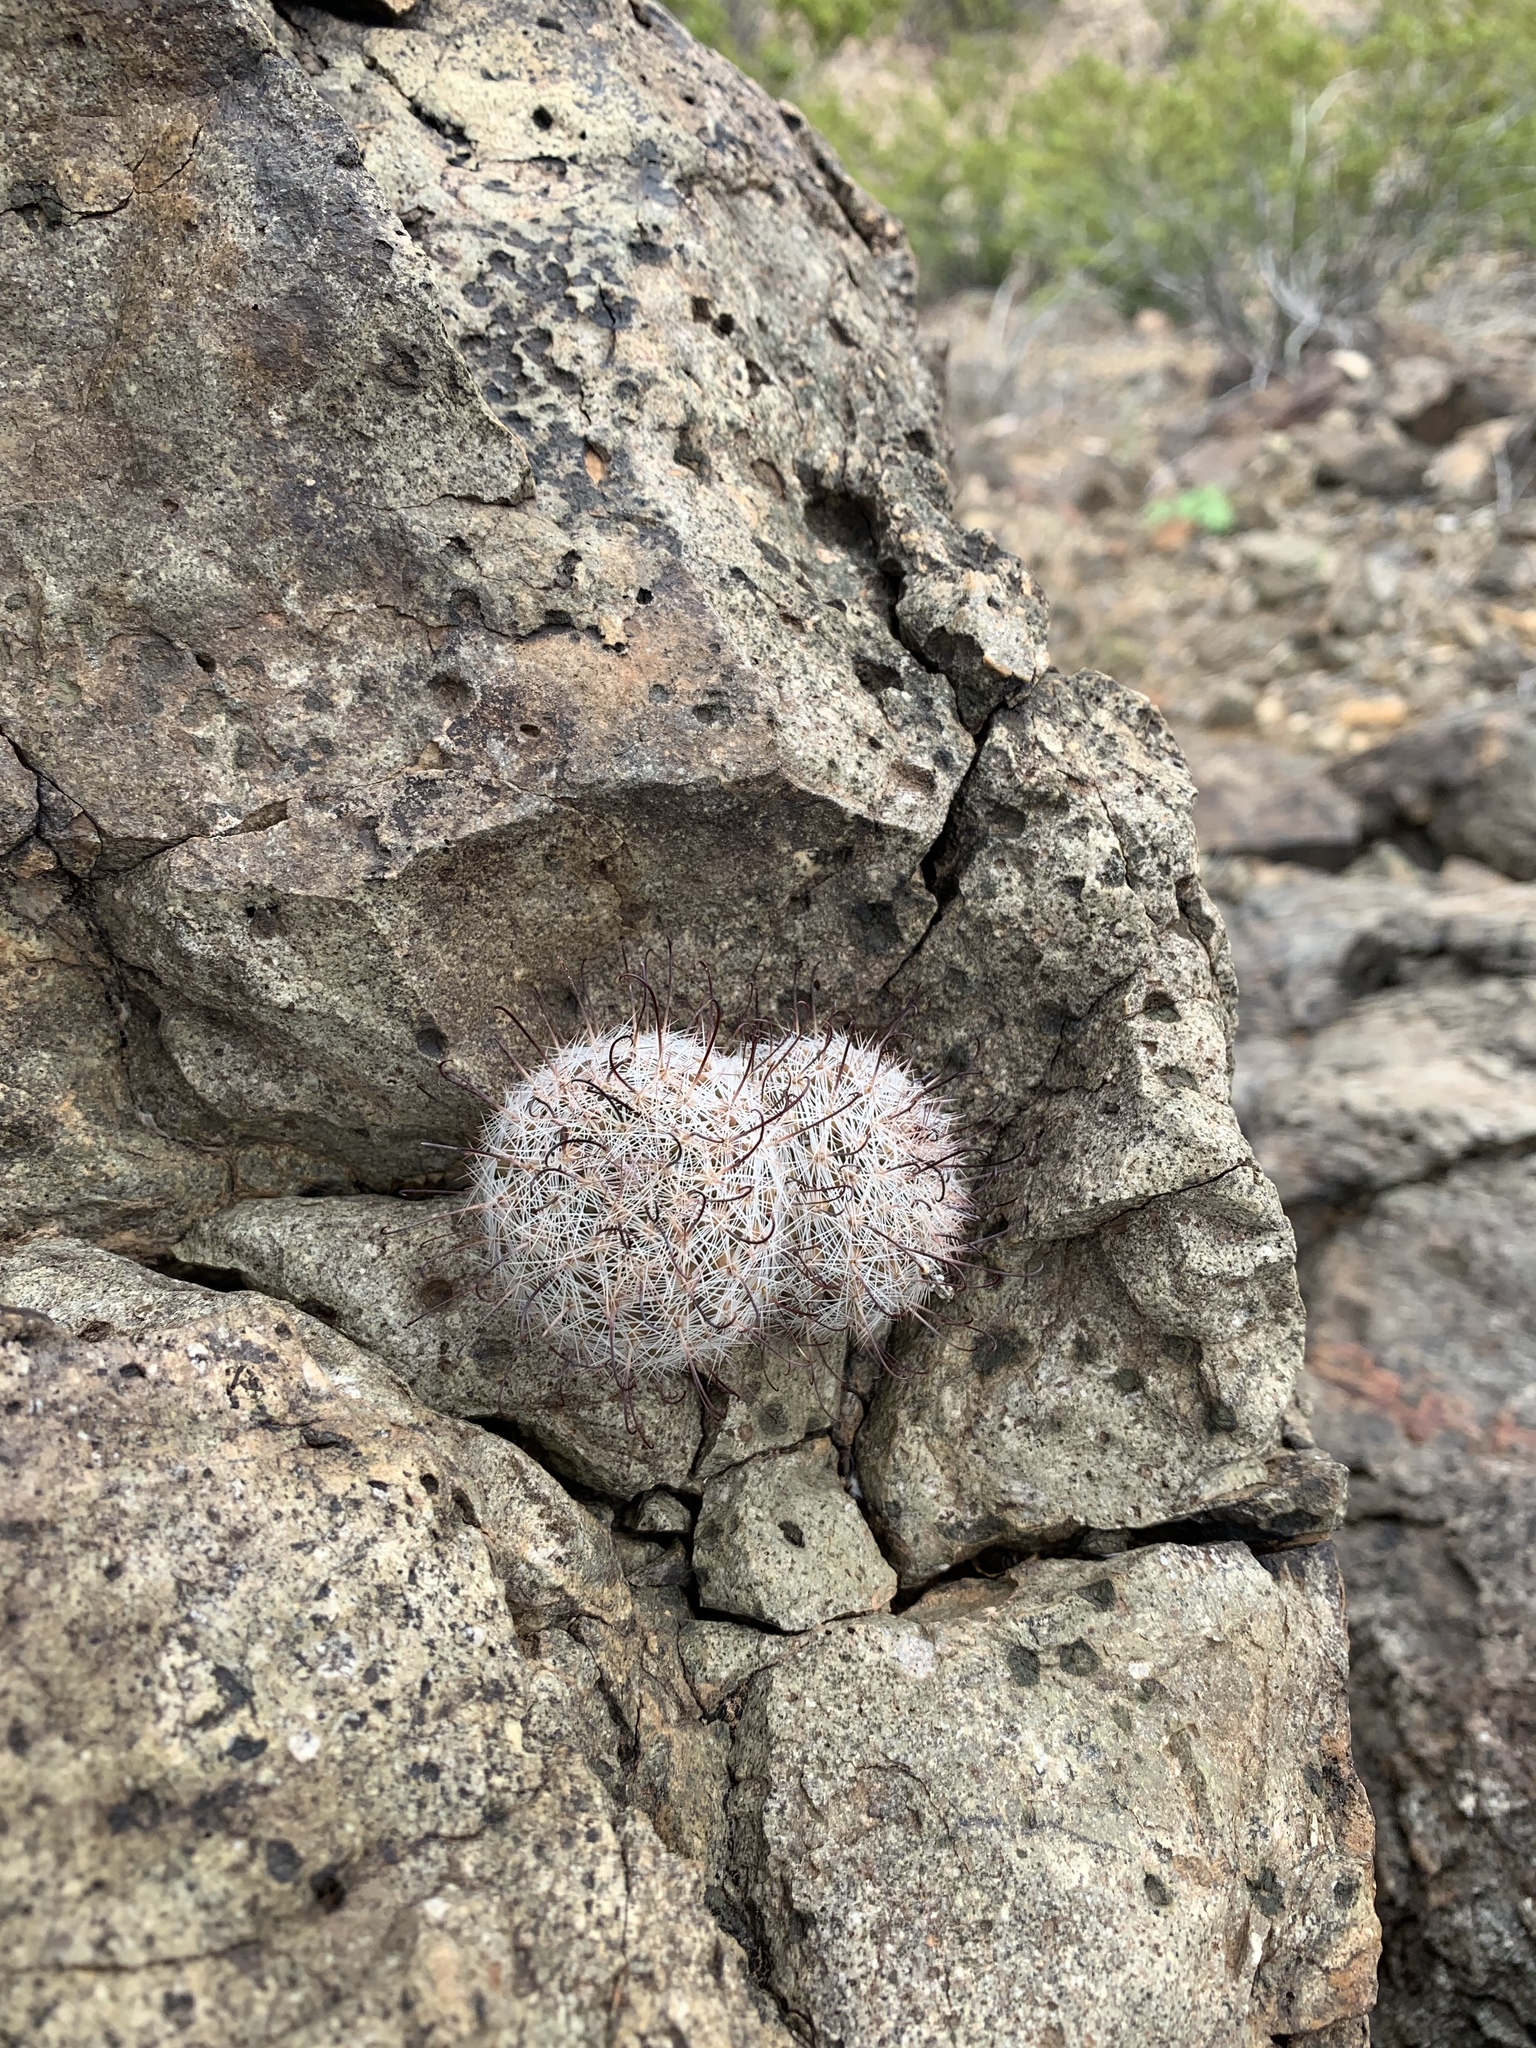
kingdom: Plantae
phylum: Tracheophyta
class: Magnoliopsida
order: Caryophyllales
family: Cactaceae
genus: Cochemiea
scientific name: Cochemiea grahamii
